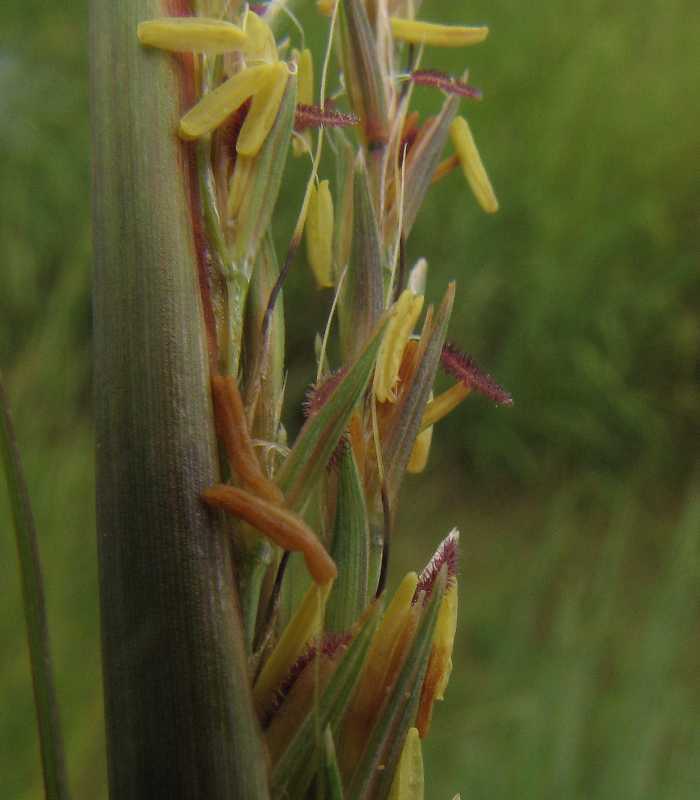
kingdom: Plantae
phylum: Tracheophyta
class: Liliopsida
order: Poales
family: Poaceae
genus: Andropogon
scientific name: Andropogon gerardi
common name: Big bluestem
